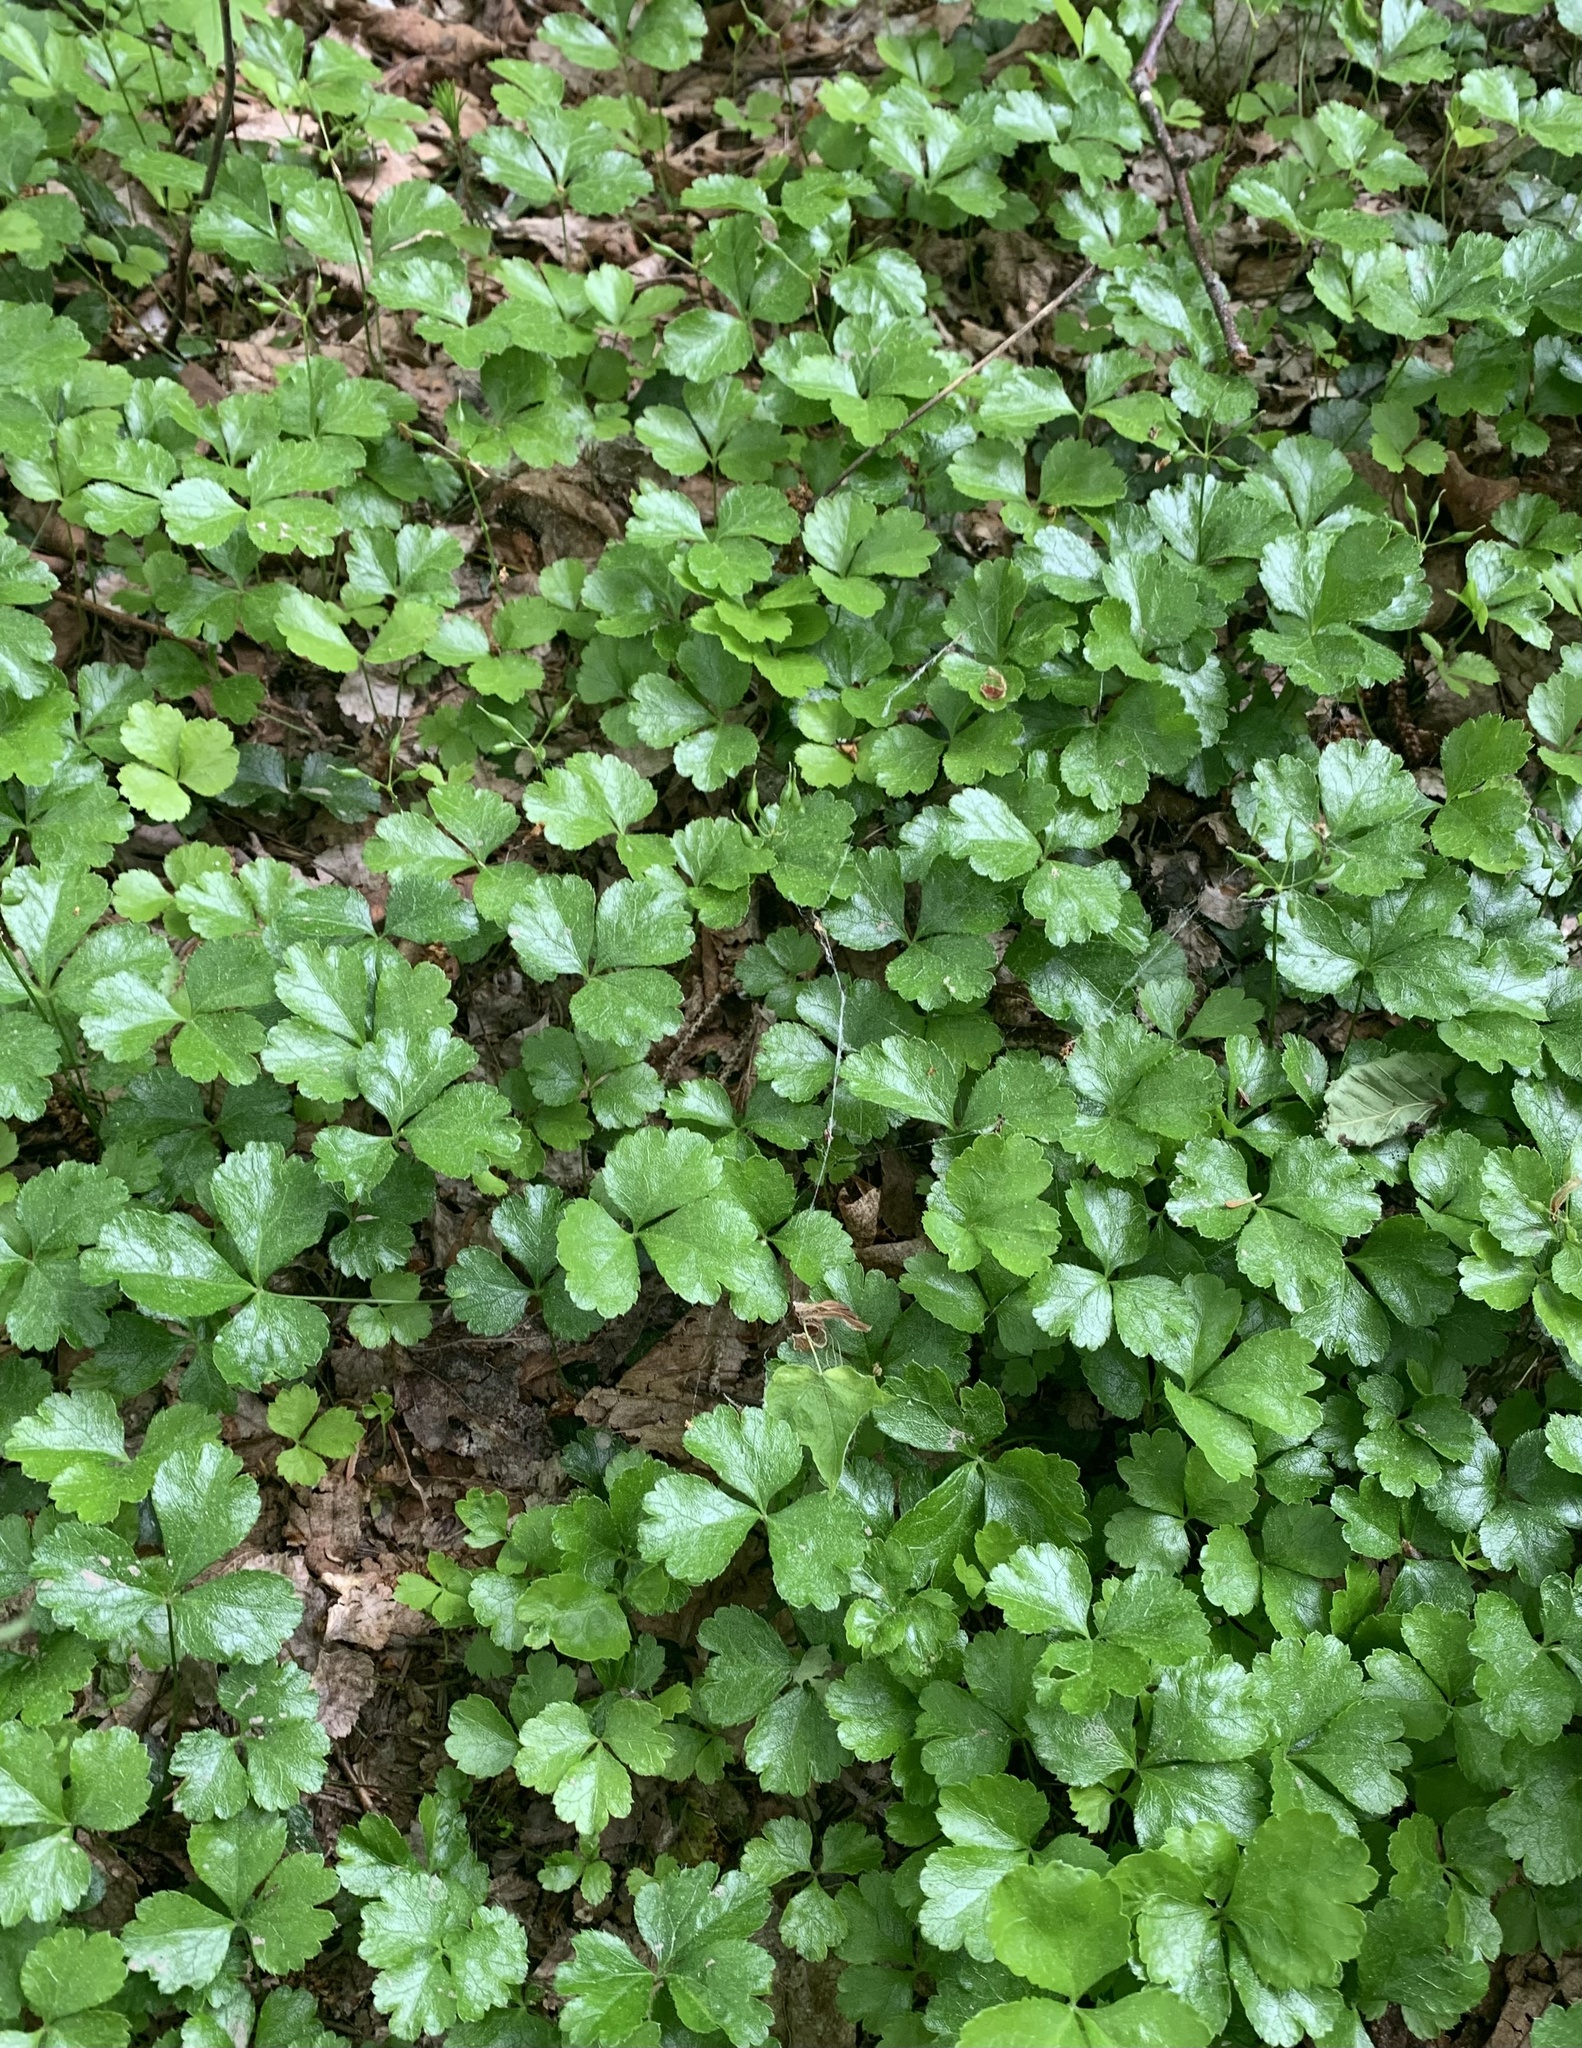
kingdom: Plantae
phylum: Tracheophyta
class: Magnoliopsida
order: Ranunculales
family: Ranunculaceae
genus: Coptis
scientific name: Coptis trifolia
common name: Canker-root
